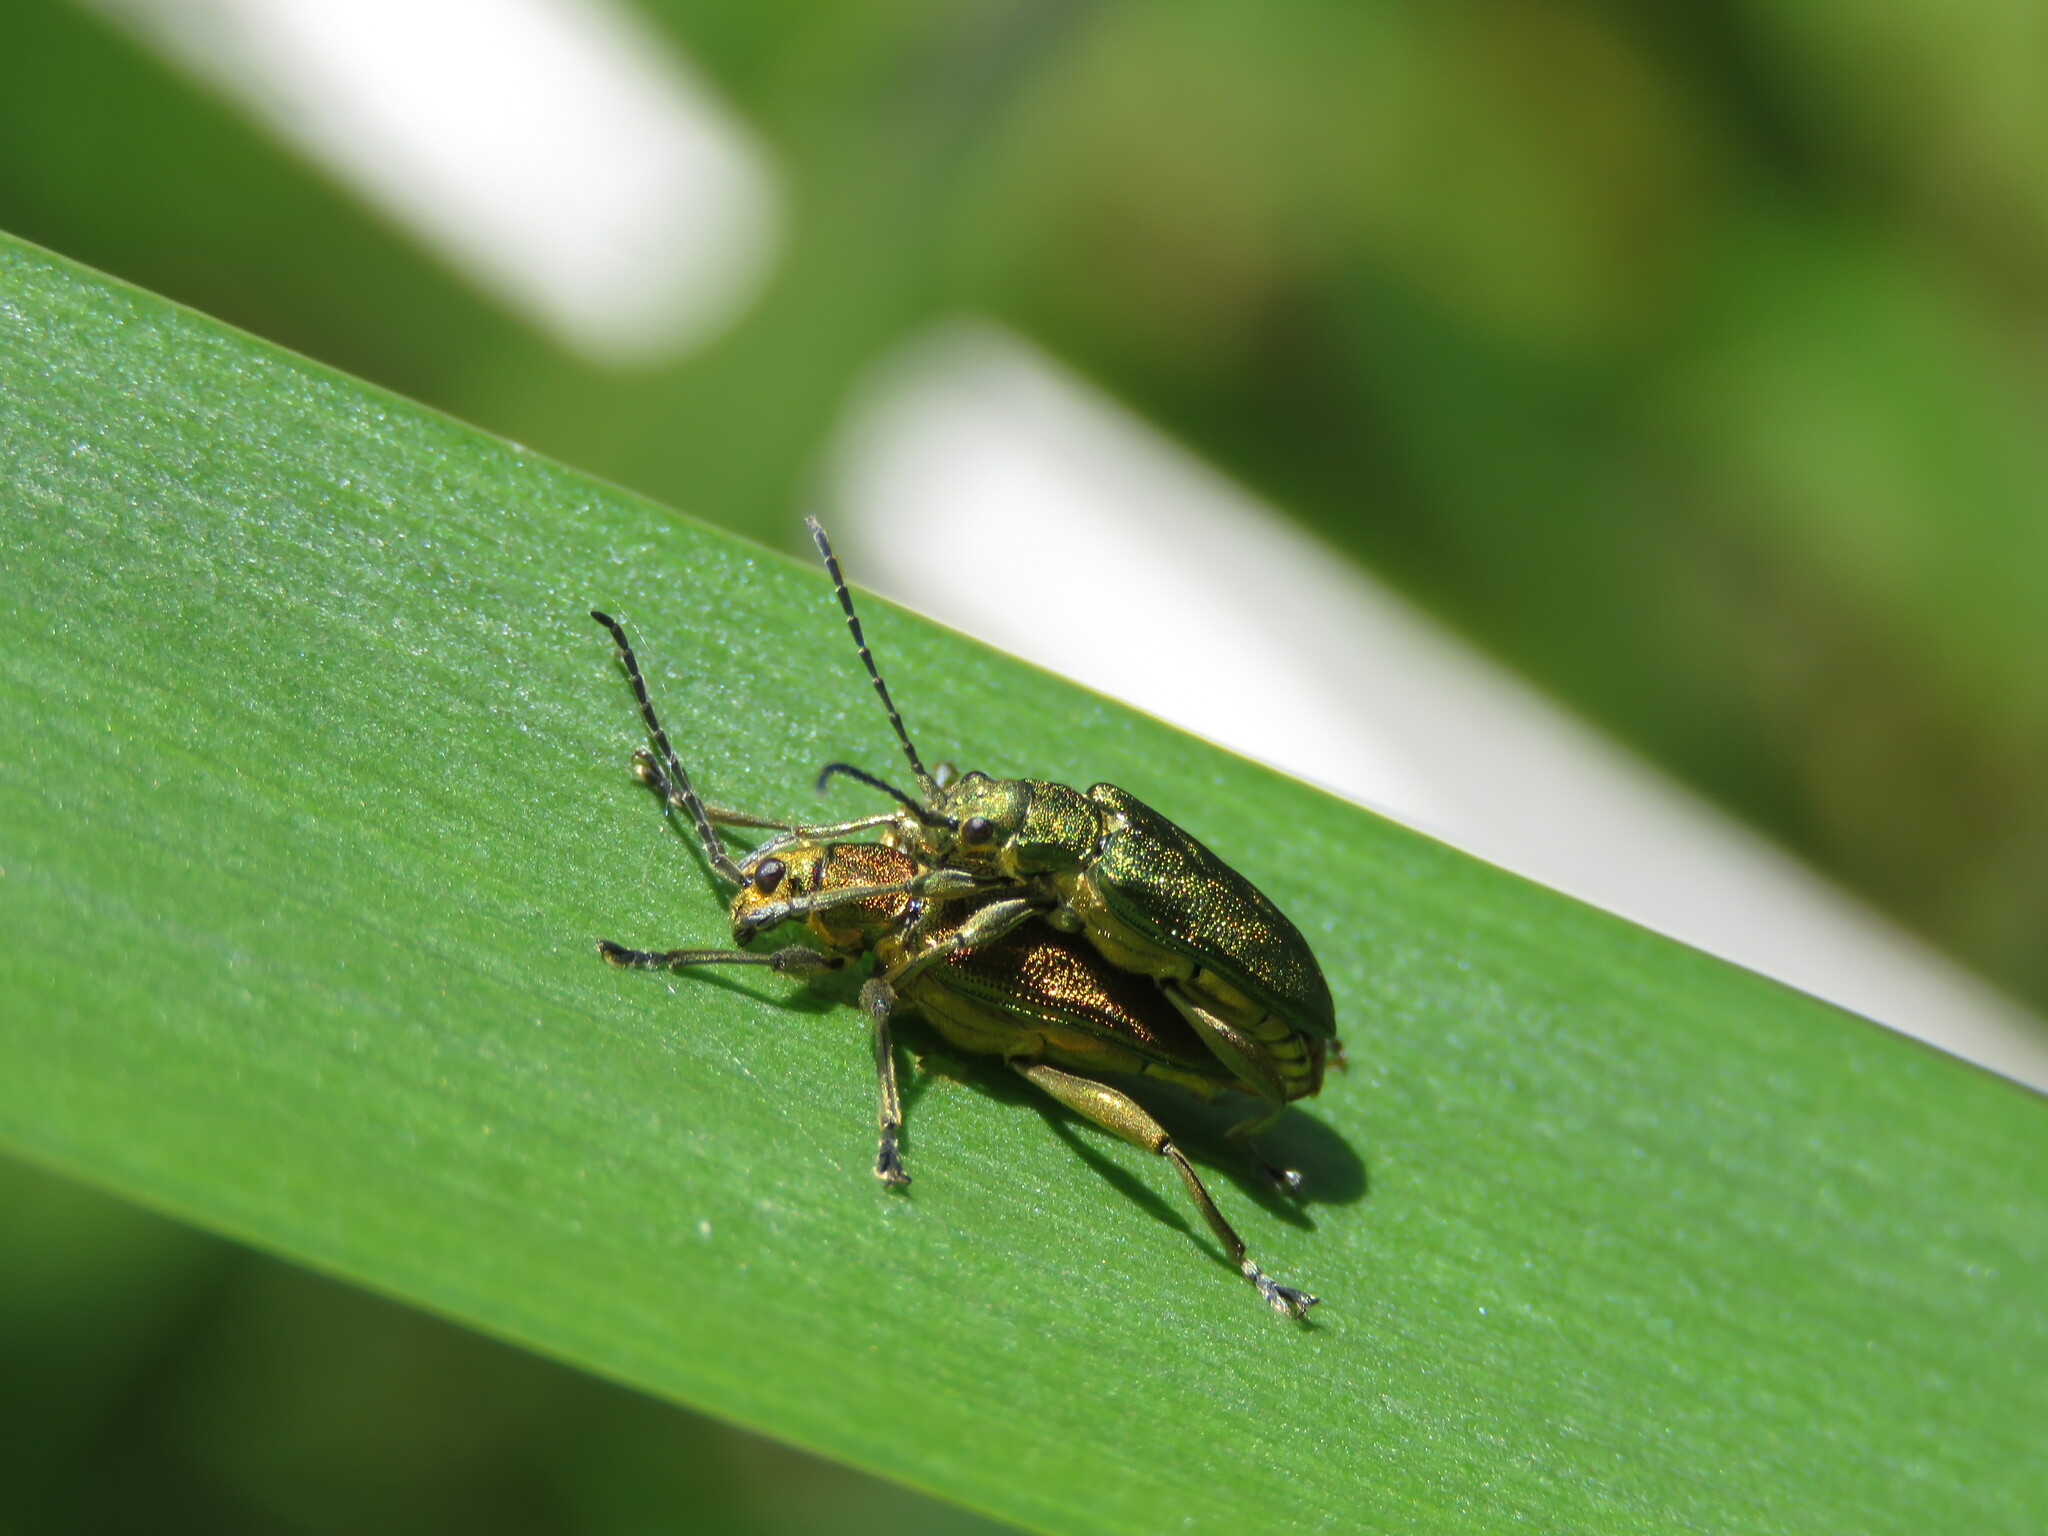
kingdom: Animalia
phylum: Arthropoda
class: Insecta
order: Coleoptera
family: Chrysomelidae
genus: Donacia
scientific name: Donacia bicolora
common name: Reed beetle
